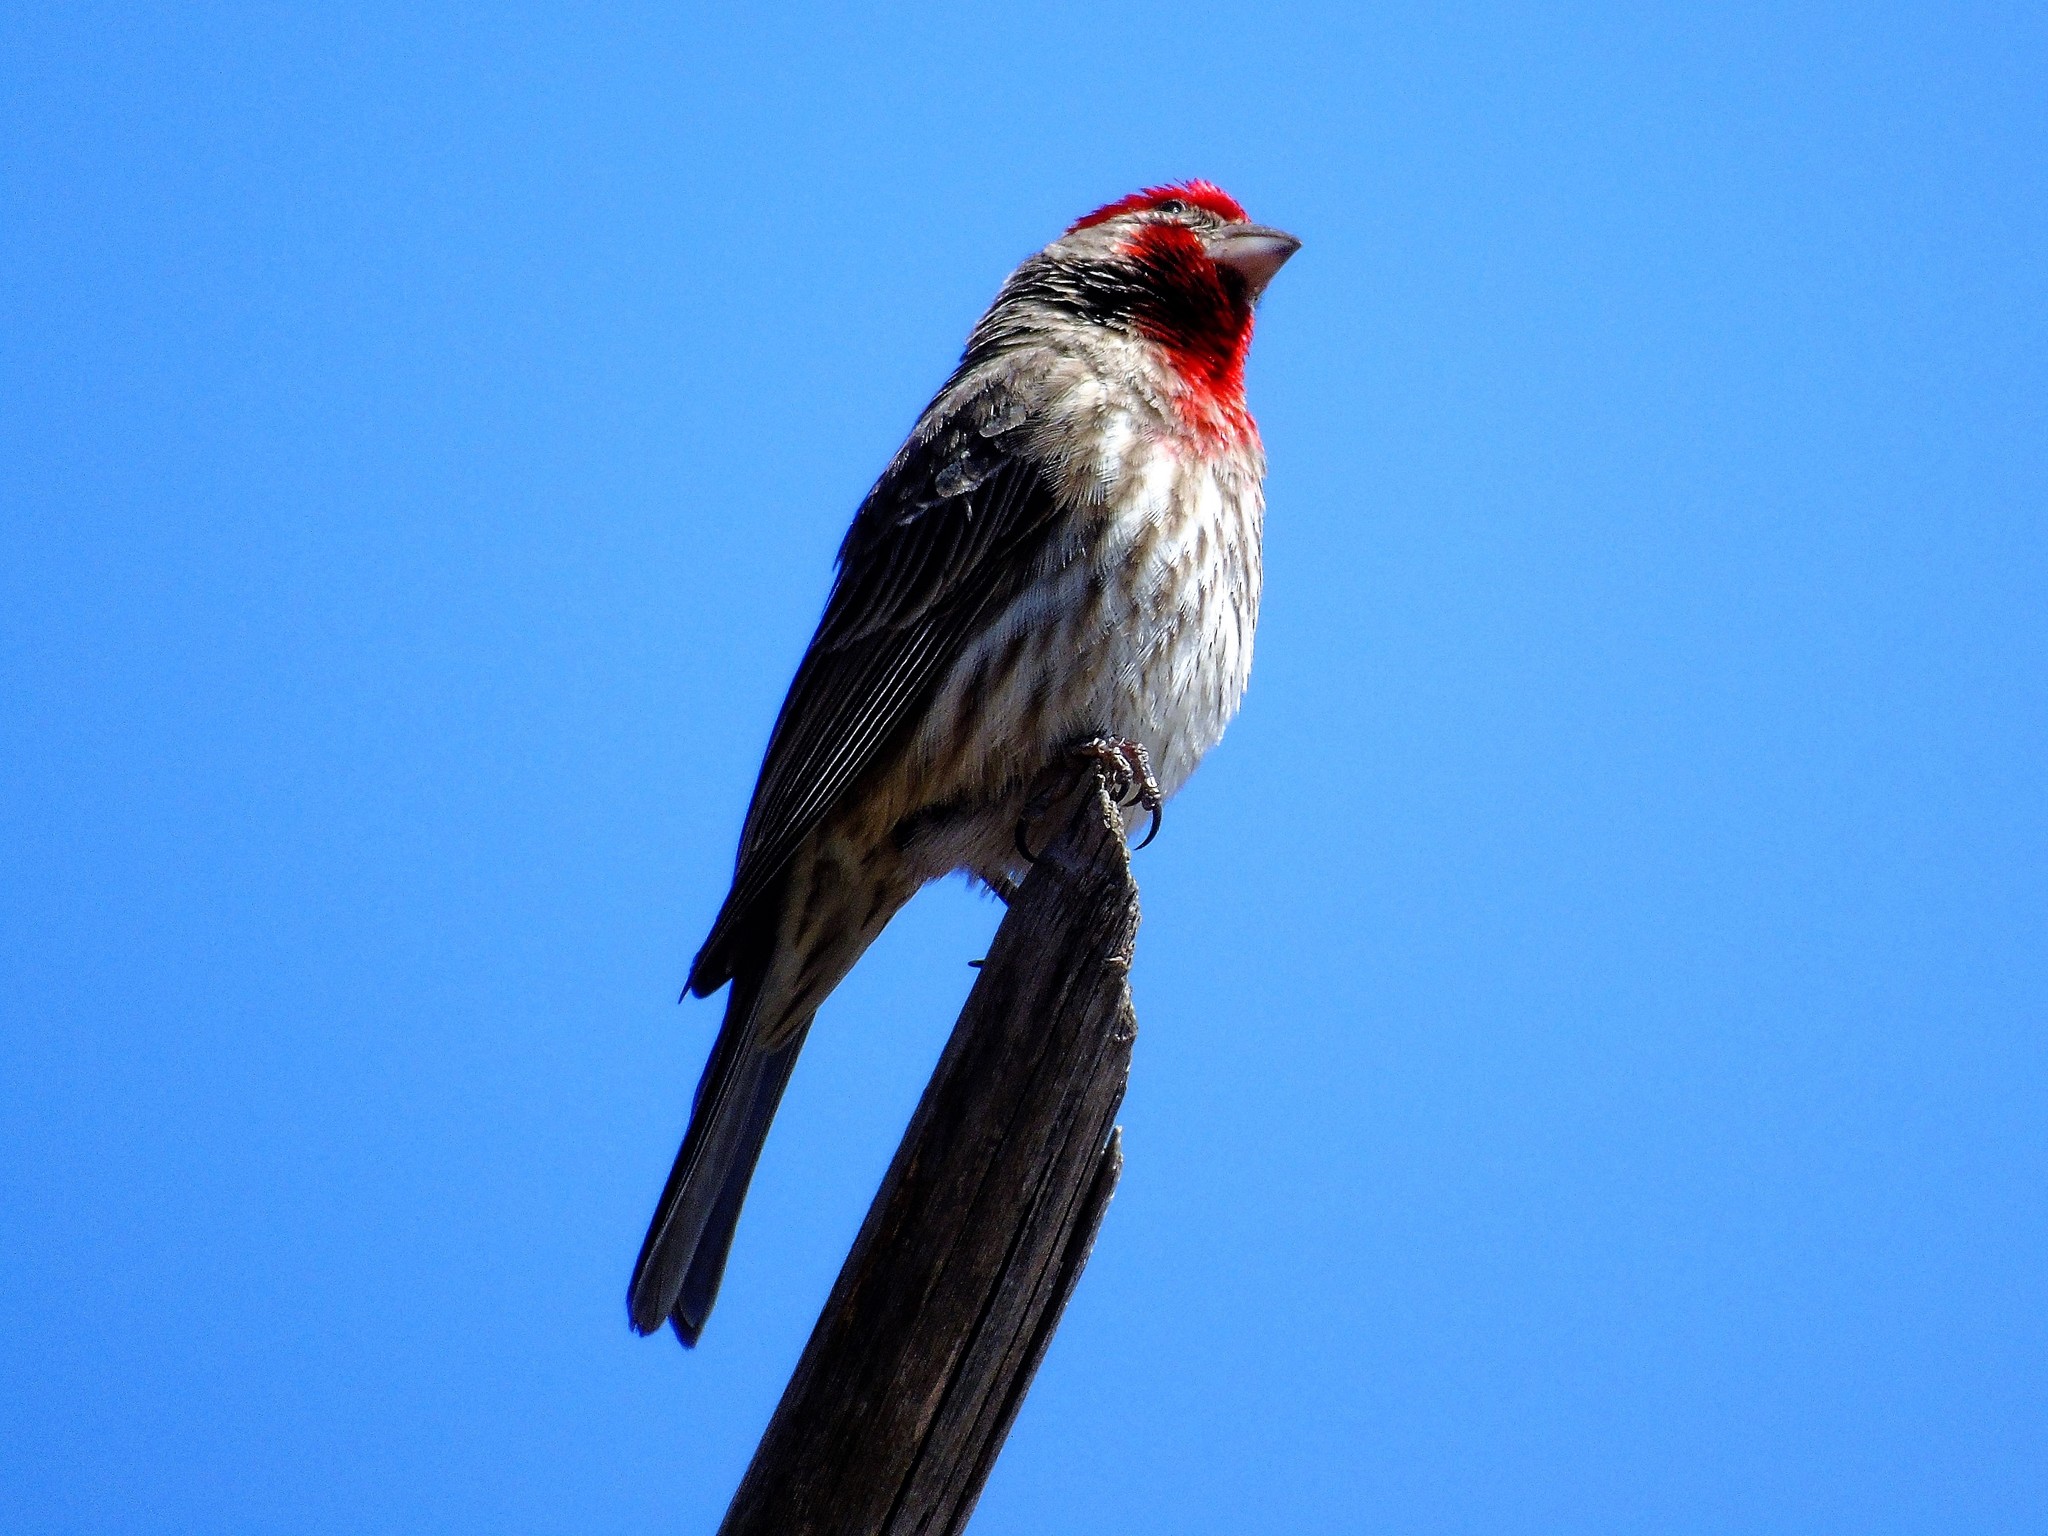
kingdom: Animalia
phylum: Chordata
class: Aves
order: Passeriformes
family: Fringillidae
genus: Haemorhous
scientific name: Haemorhous mexicanus
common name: House finch
